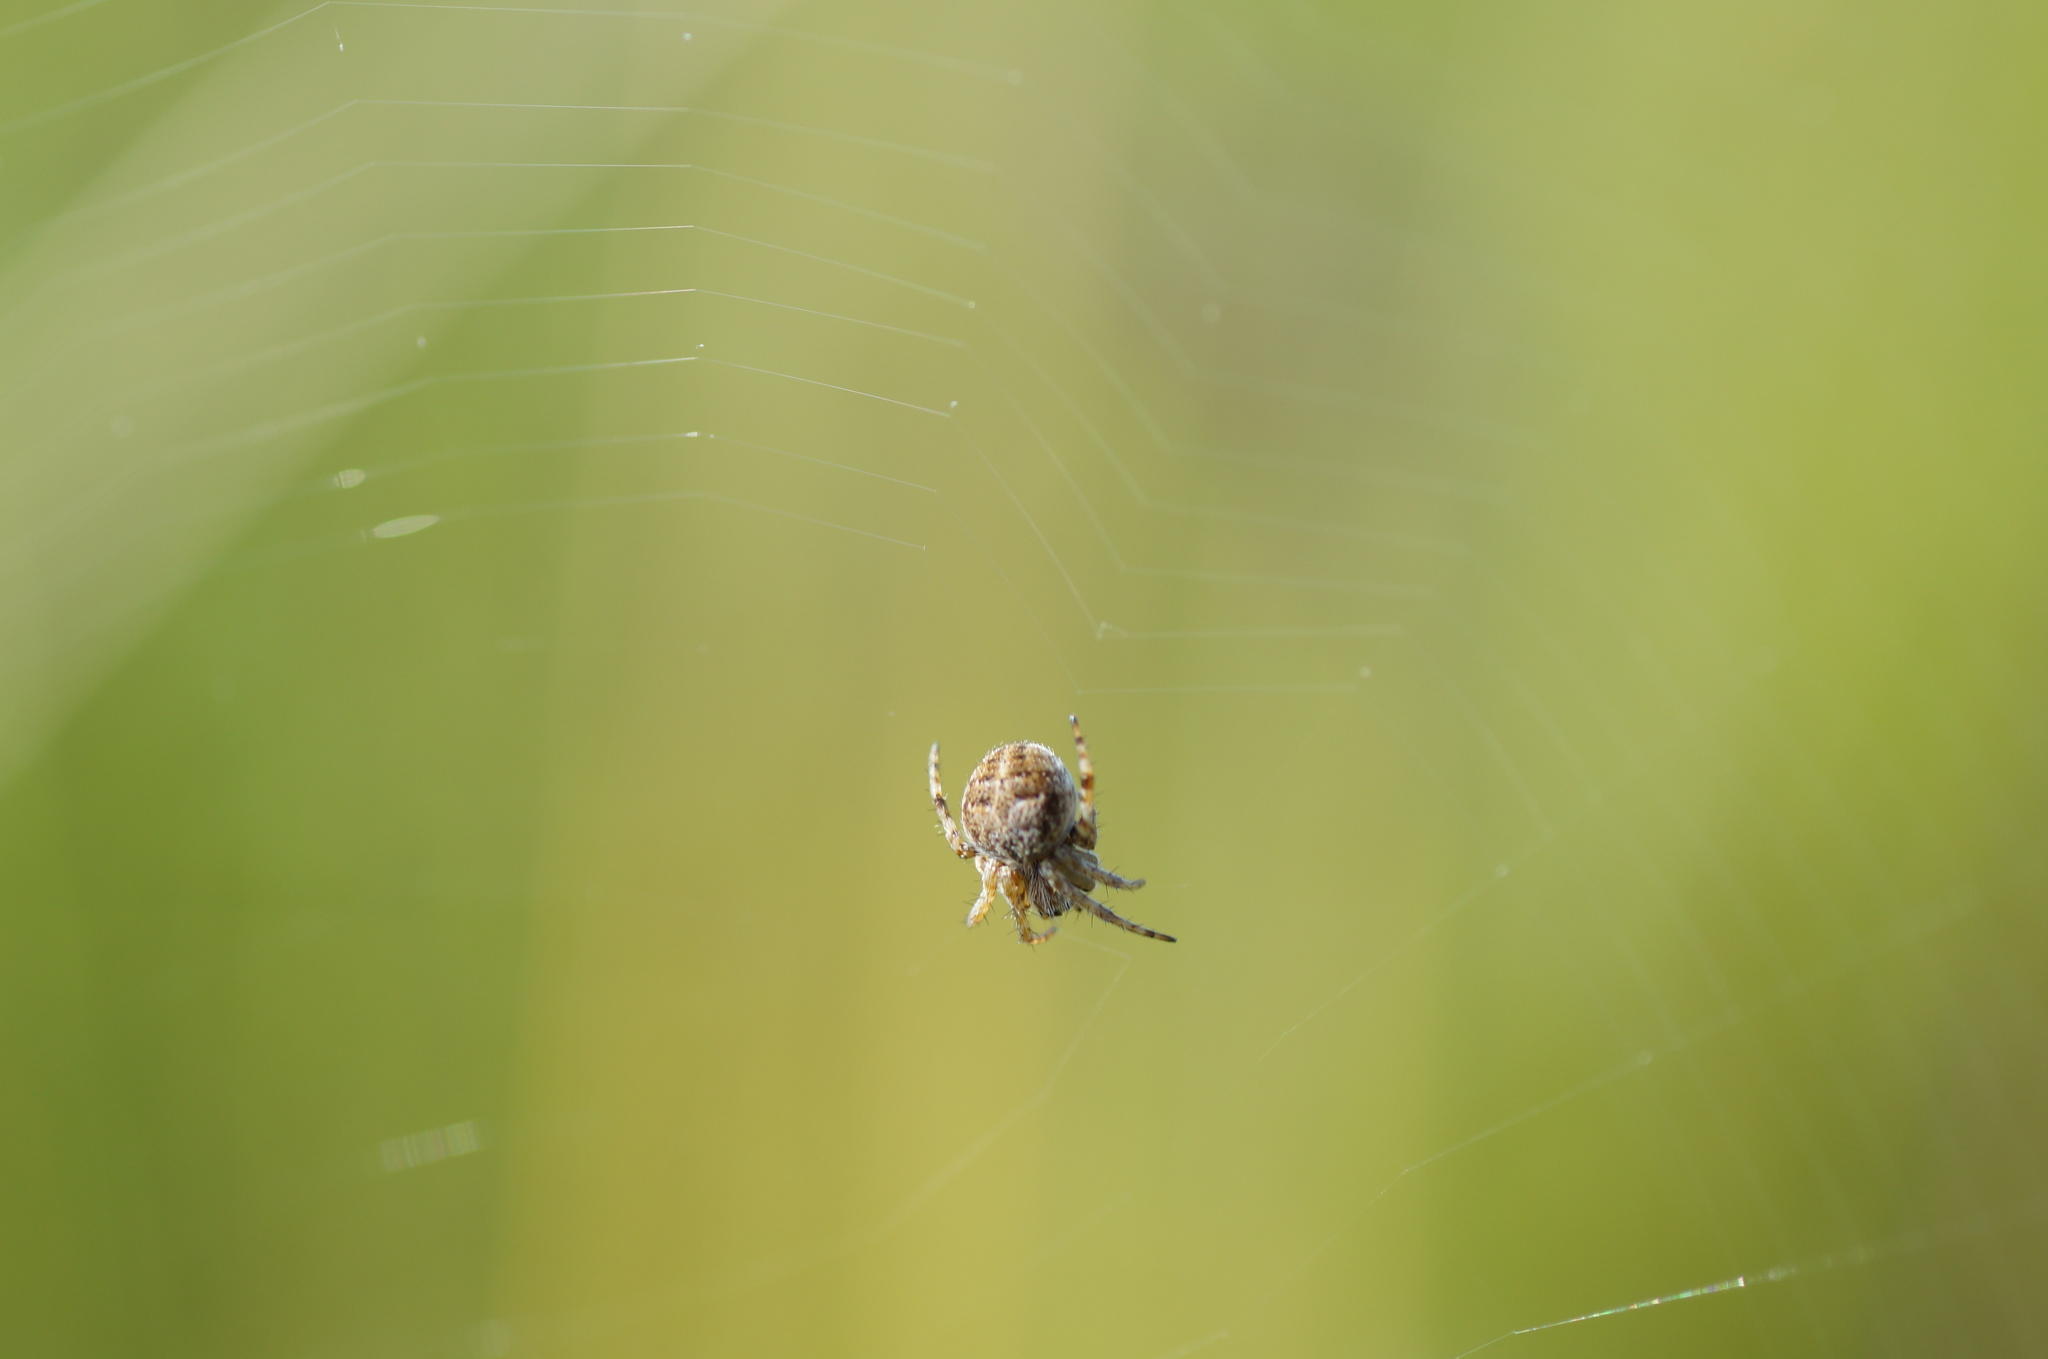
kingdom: Animalia
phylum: Arthropoda
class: Arachnida
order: Araneae
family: Araneidae
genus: Agalenatea
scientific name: Agalenatea redii
